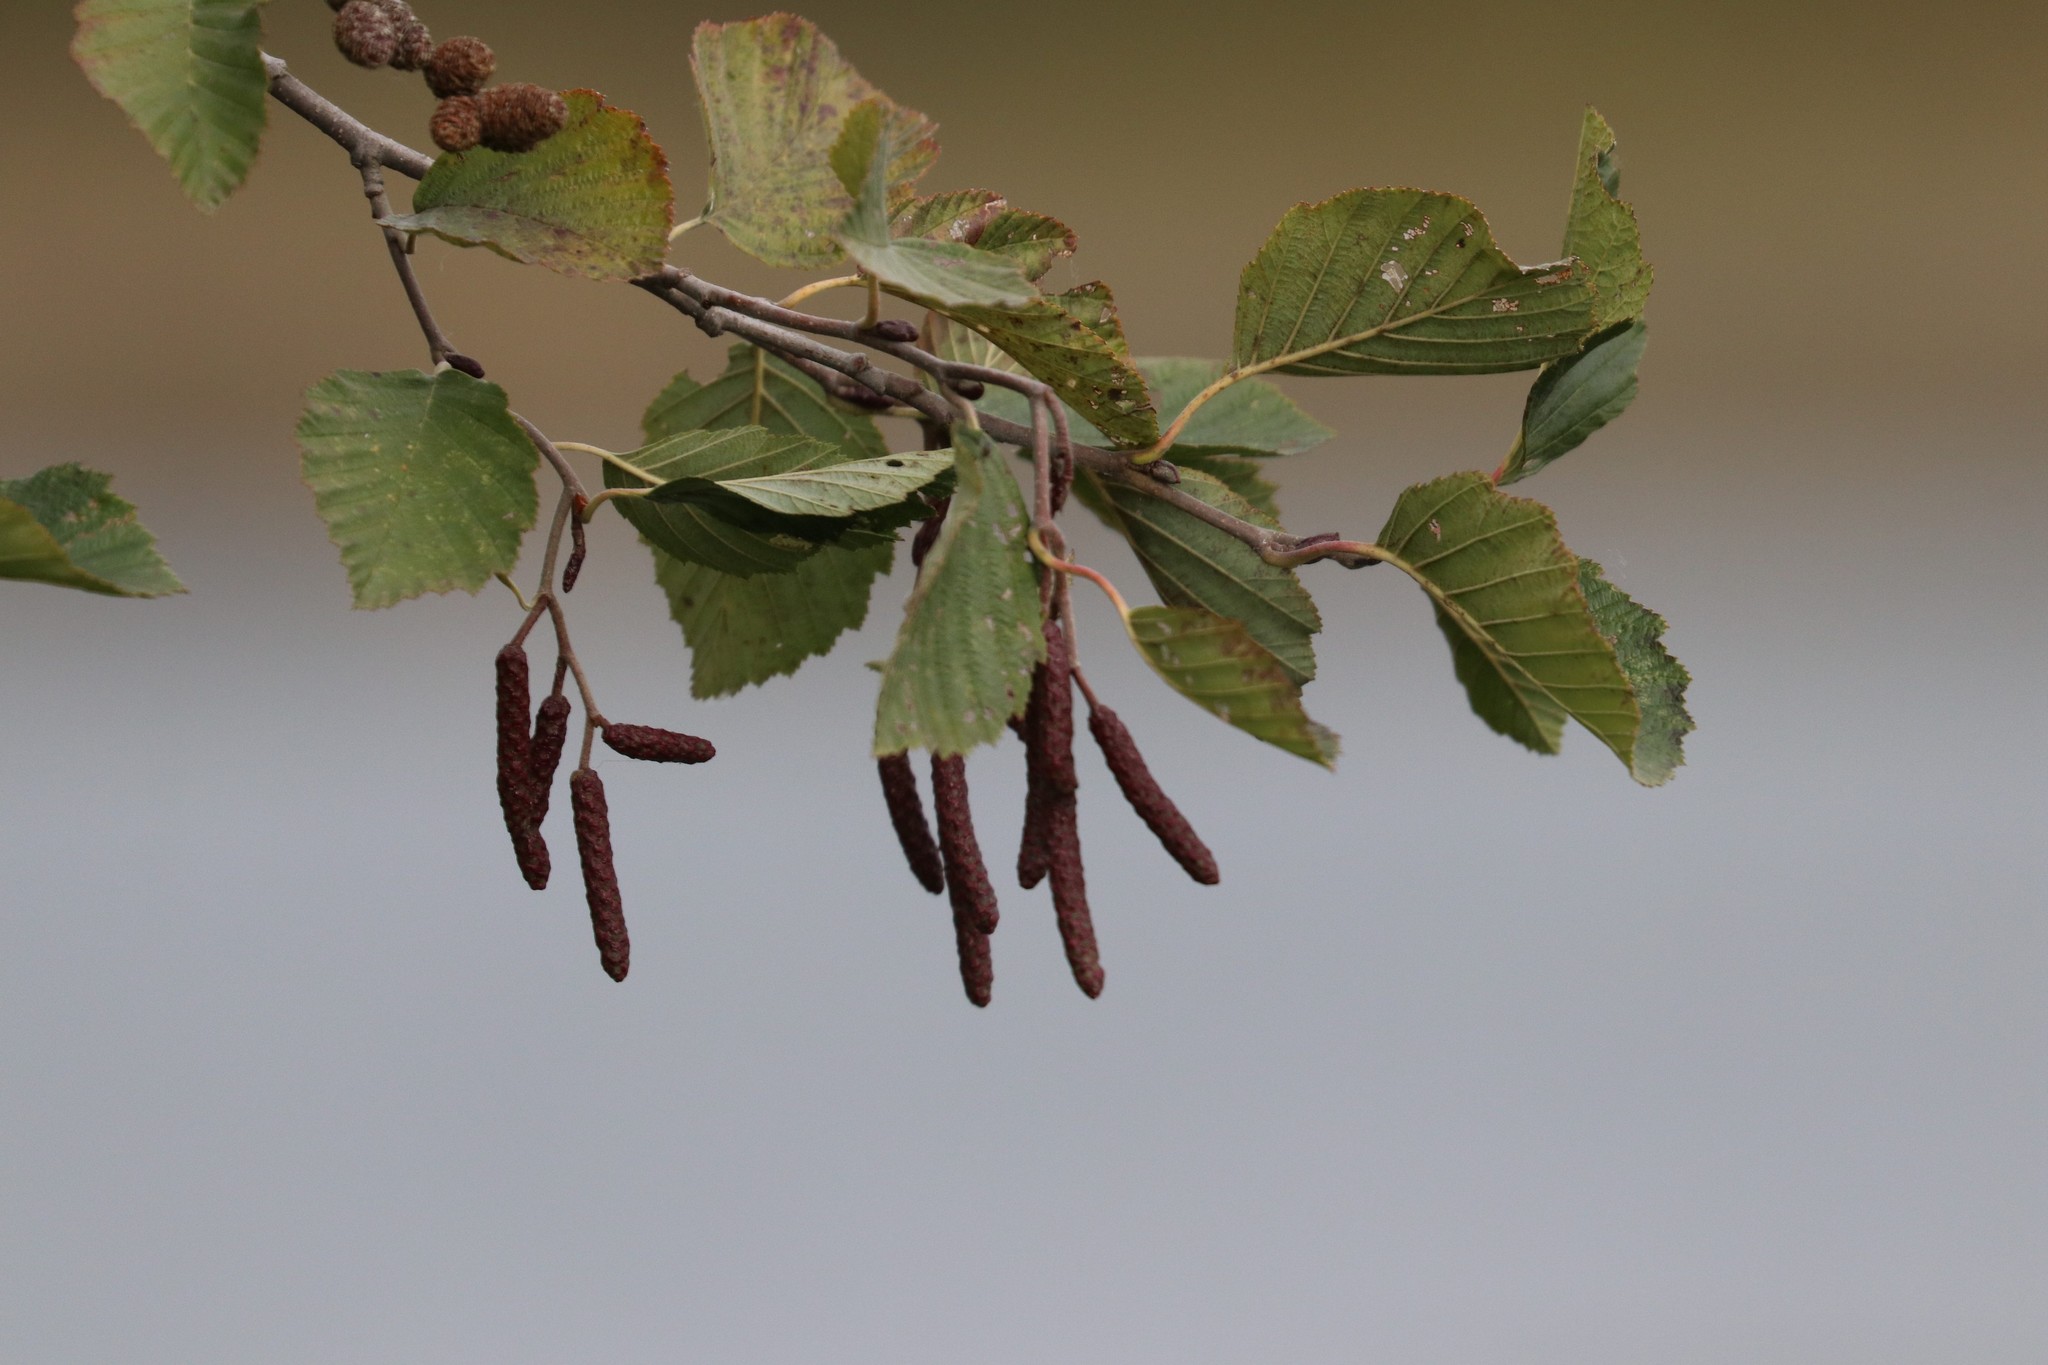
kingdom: Plantae
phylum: Tracheophyta
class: Magnoliopsida
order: Fagales
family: Betulaceae
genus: Alnus
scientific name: Alnus incana
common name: Grey alder
